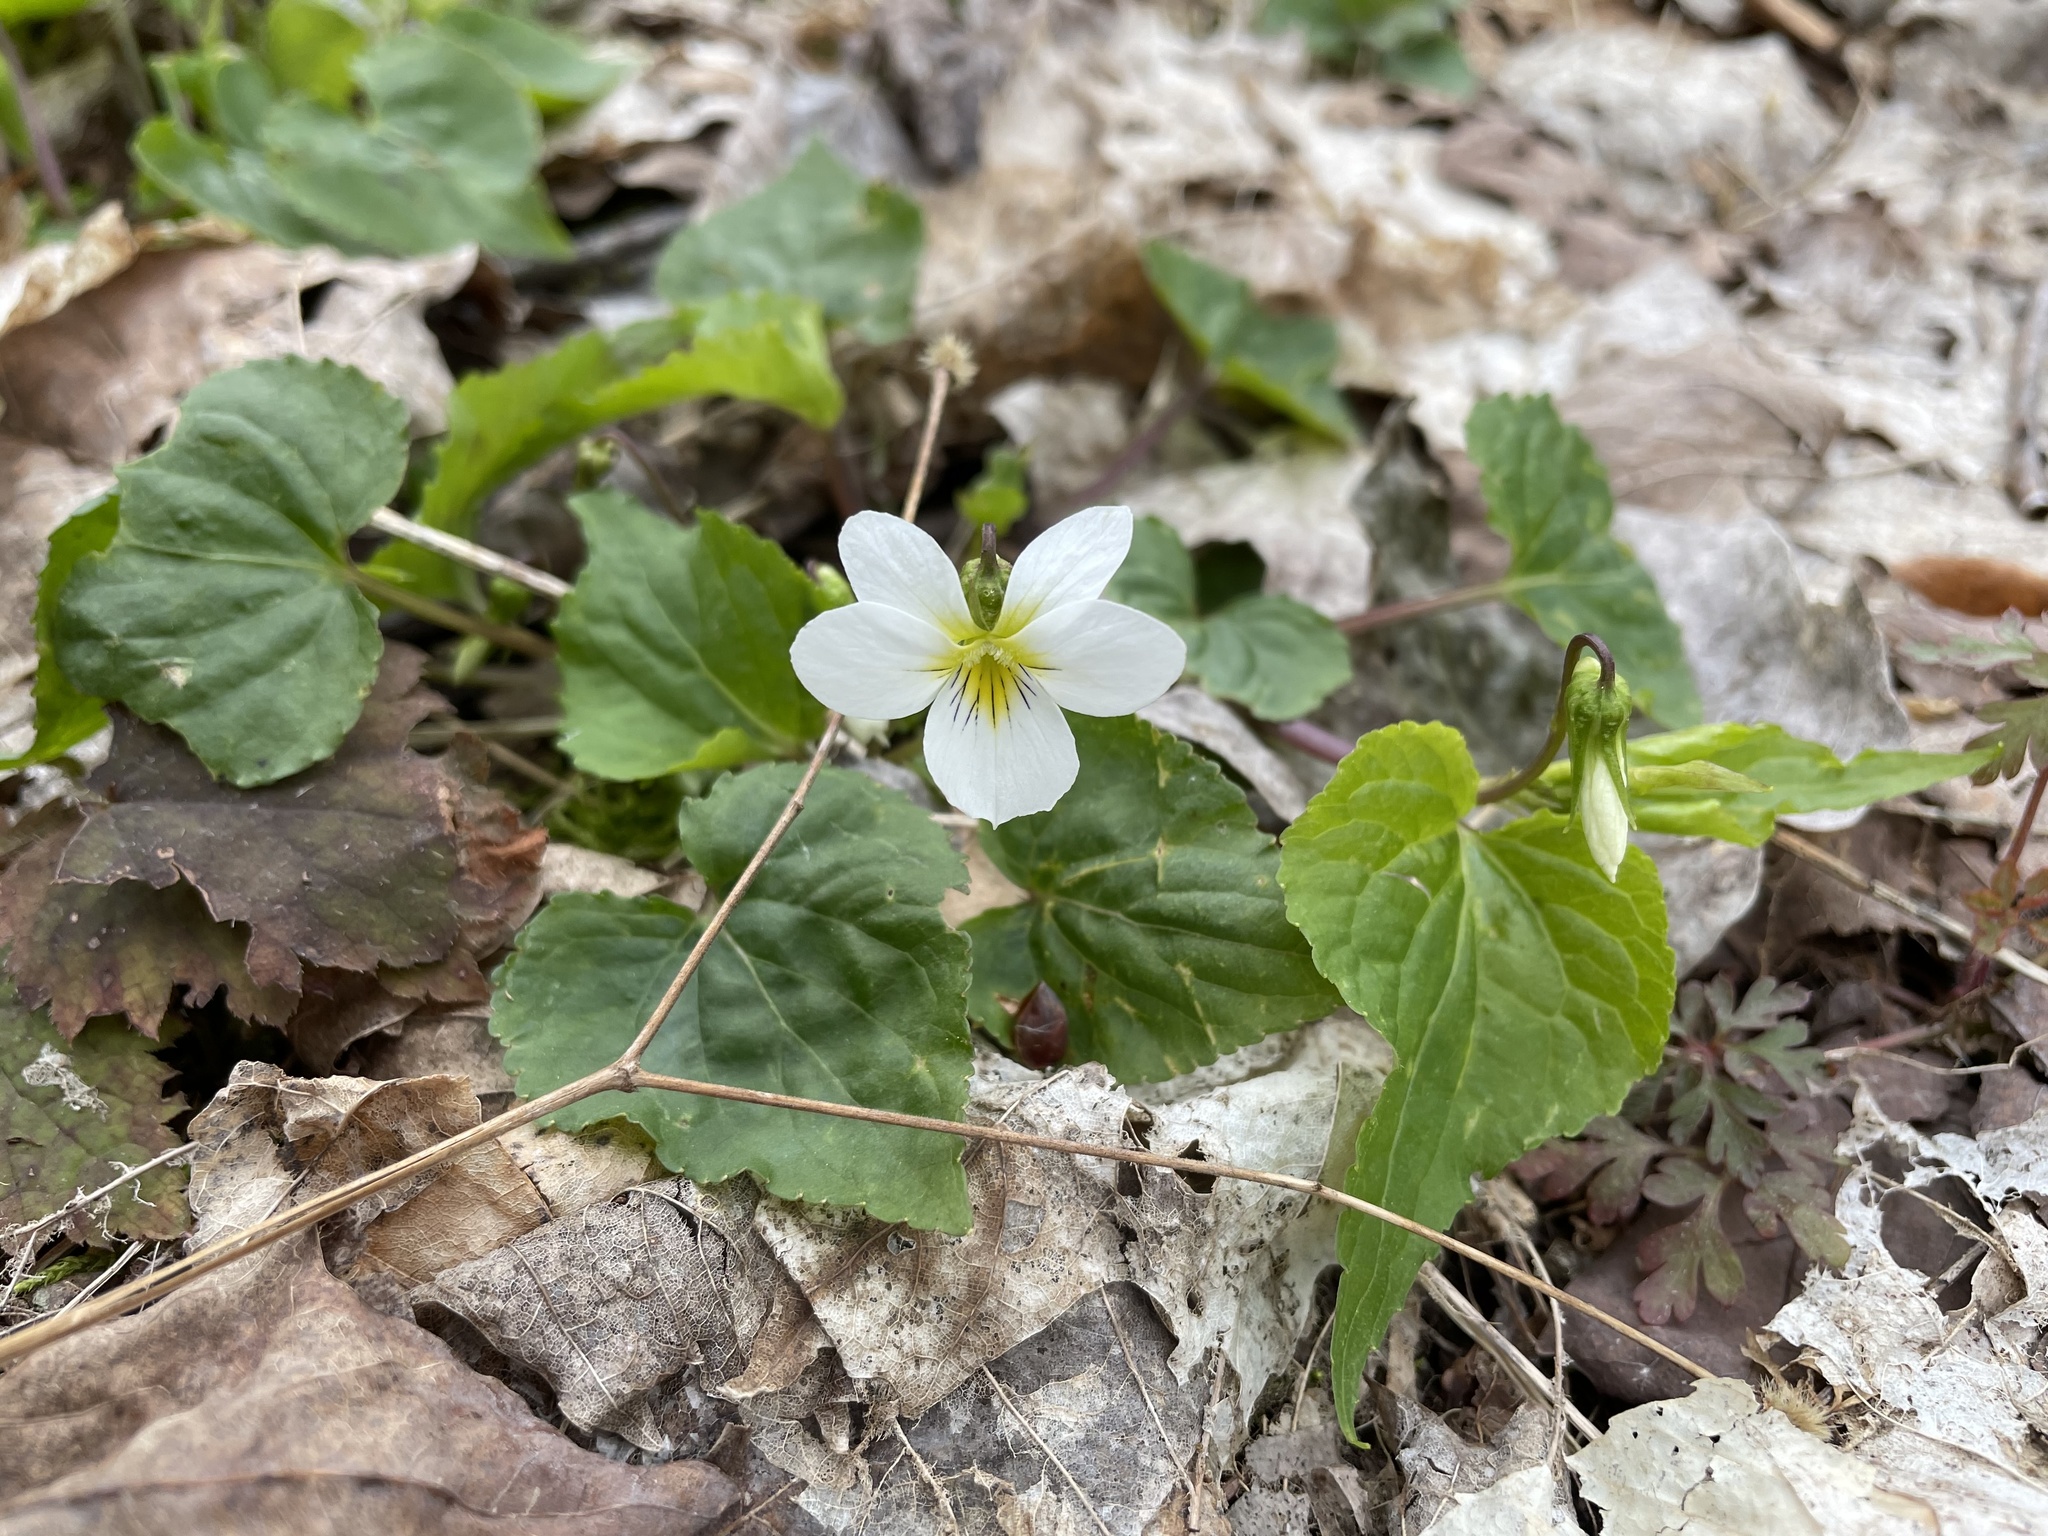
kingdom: Plantae
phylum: Tracheophyta
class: Magnoliopsida
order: Malpighiales
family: Violaceae
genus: Viola
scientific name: Viola canadensis
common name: Canada violet
